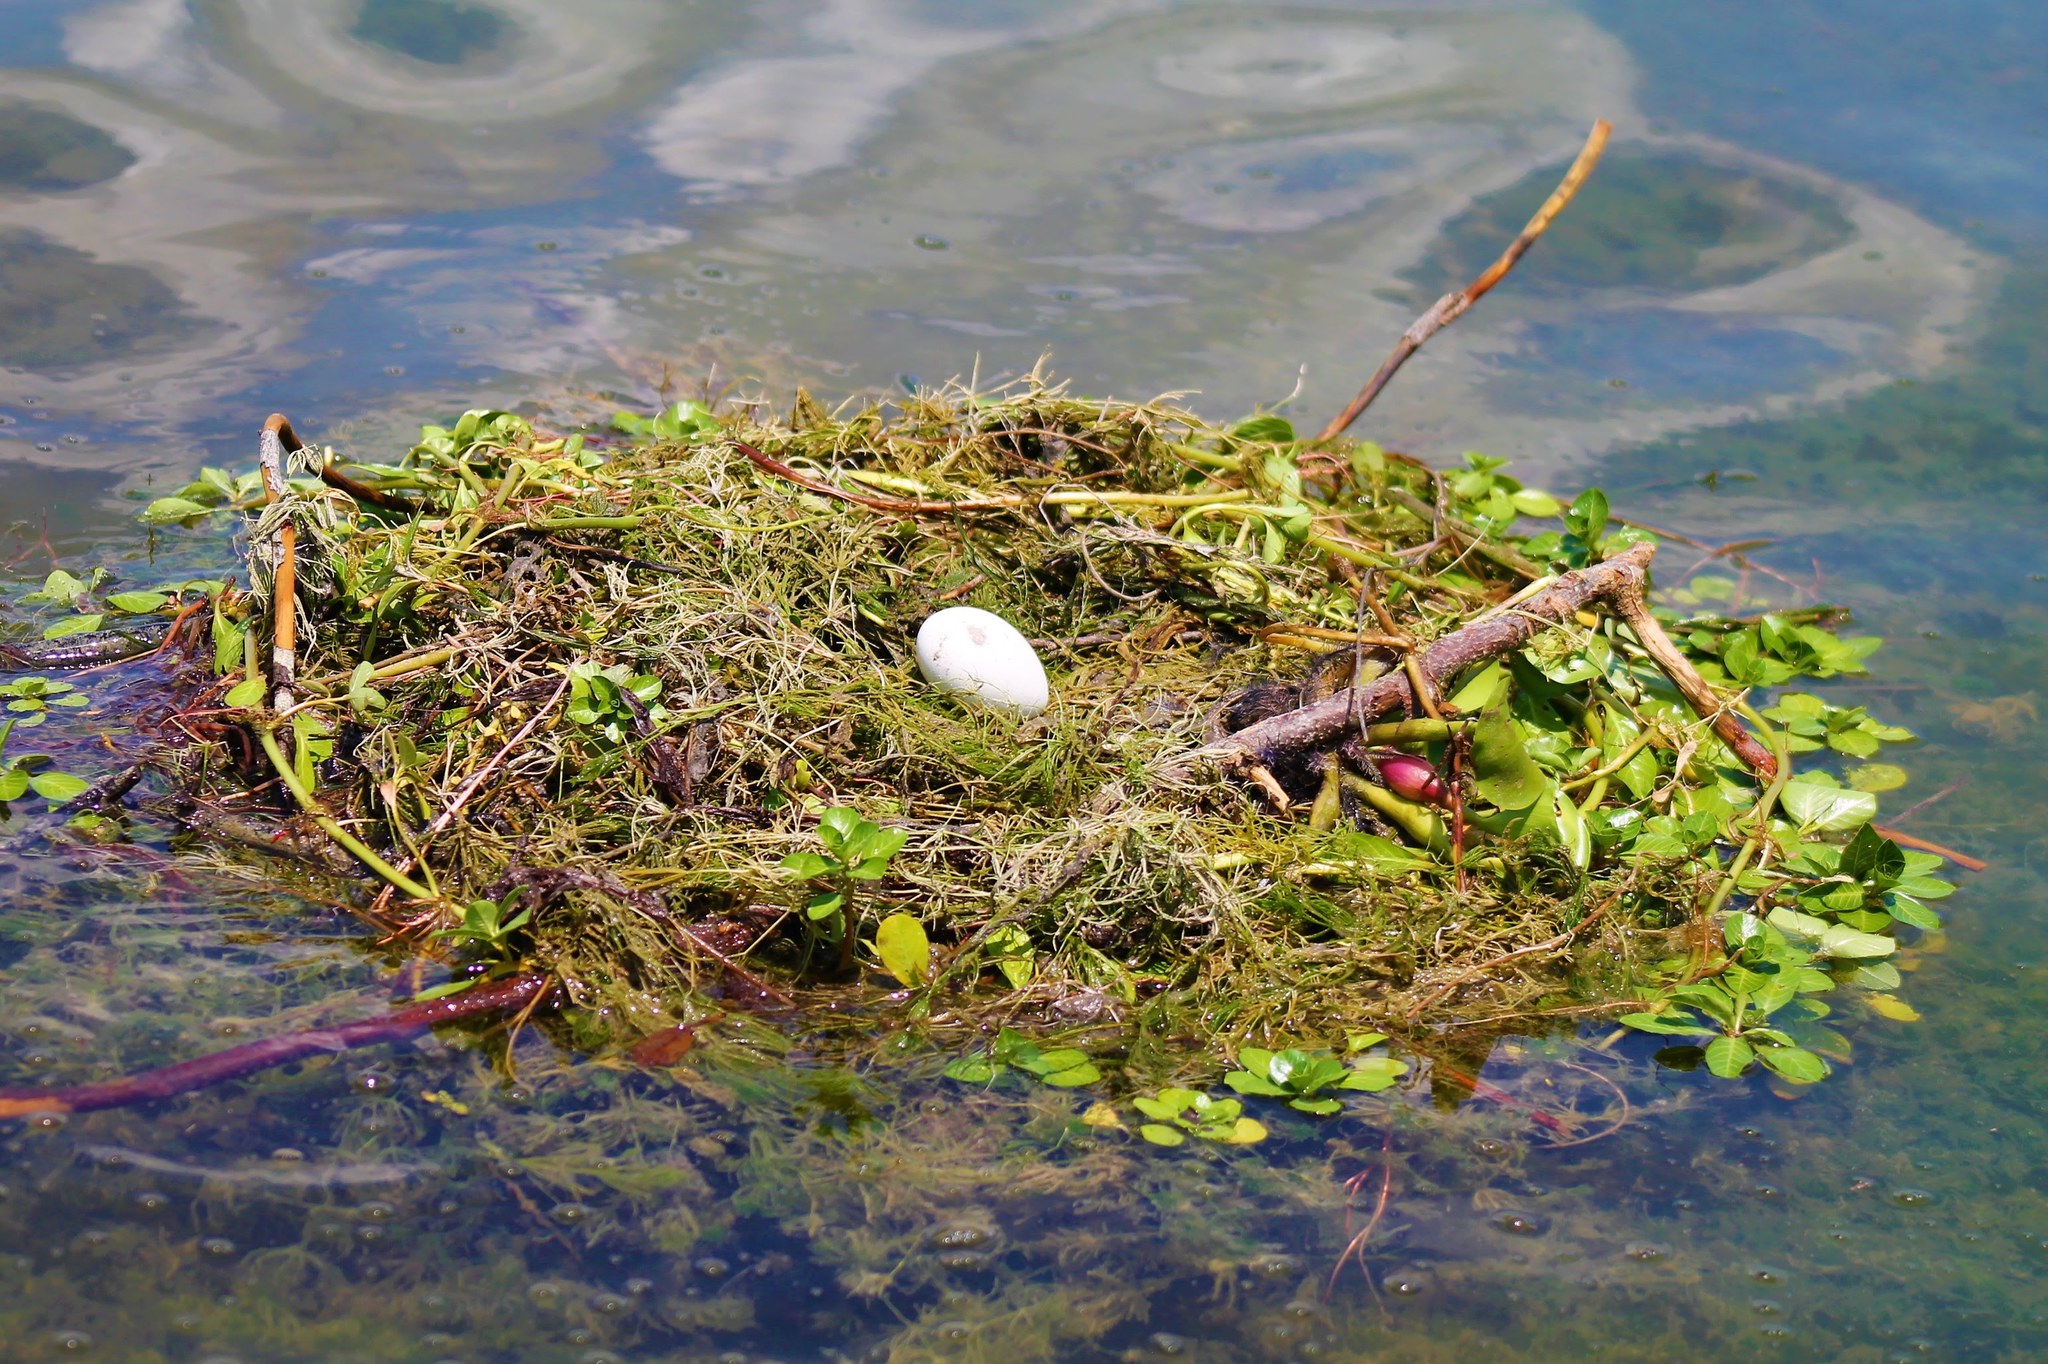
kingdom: Animalia
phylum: Chordata
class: Aves
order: Podicipediformes
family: Podicipedidae
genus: Podiceps
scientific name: Podiceps major
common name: Great grebe
